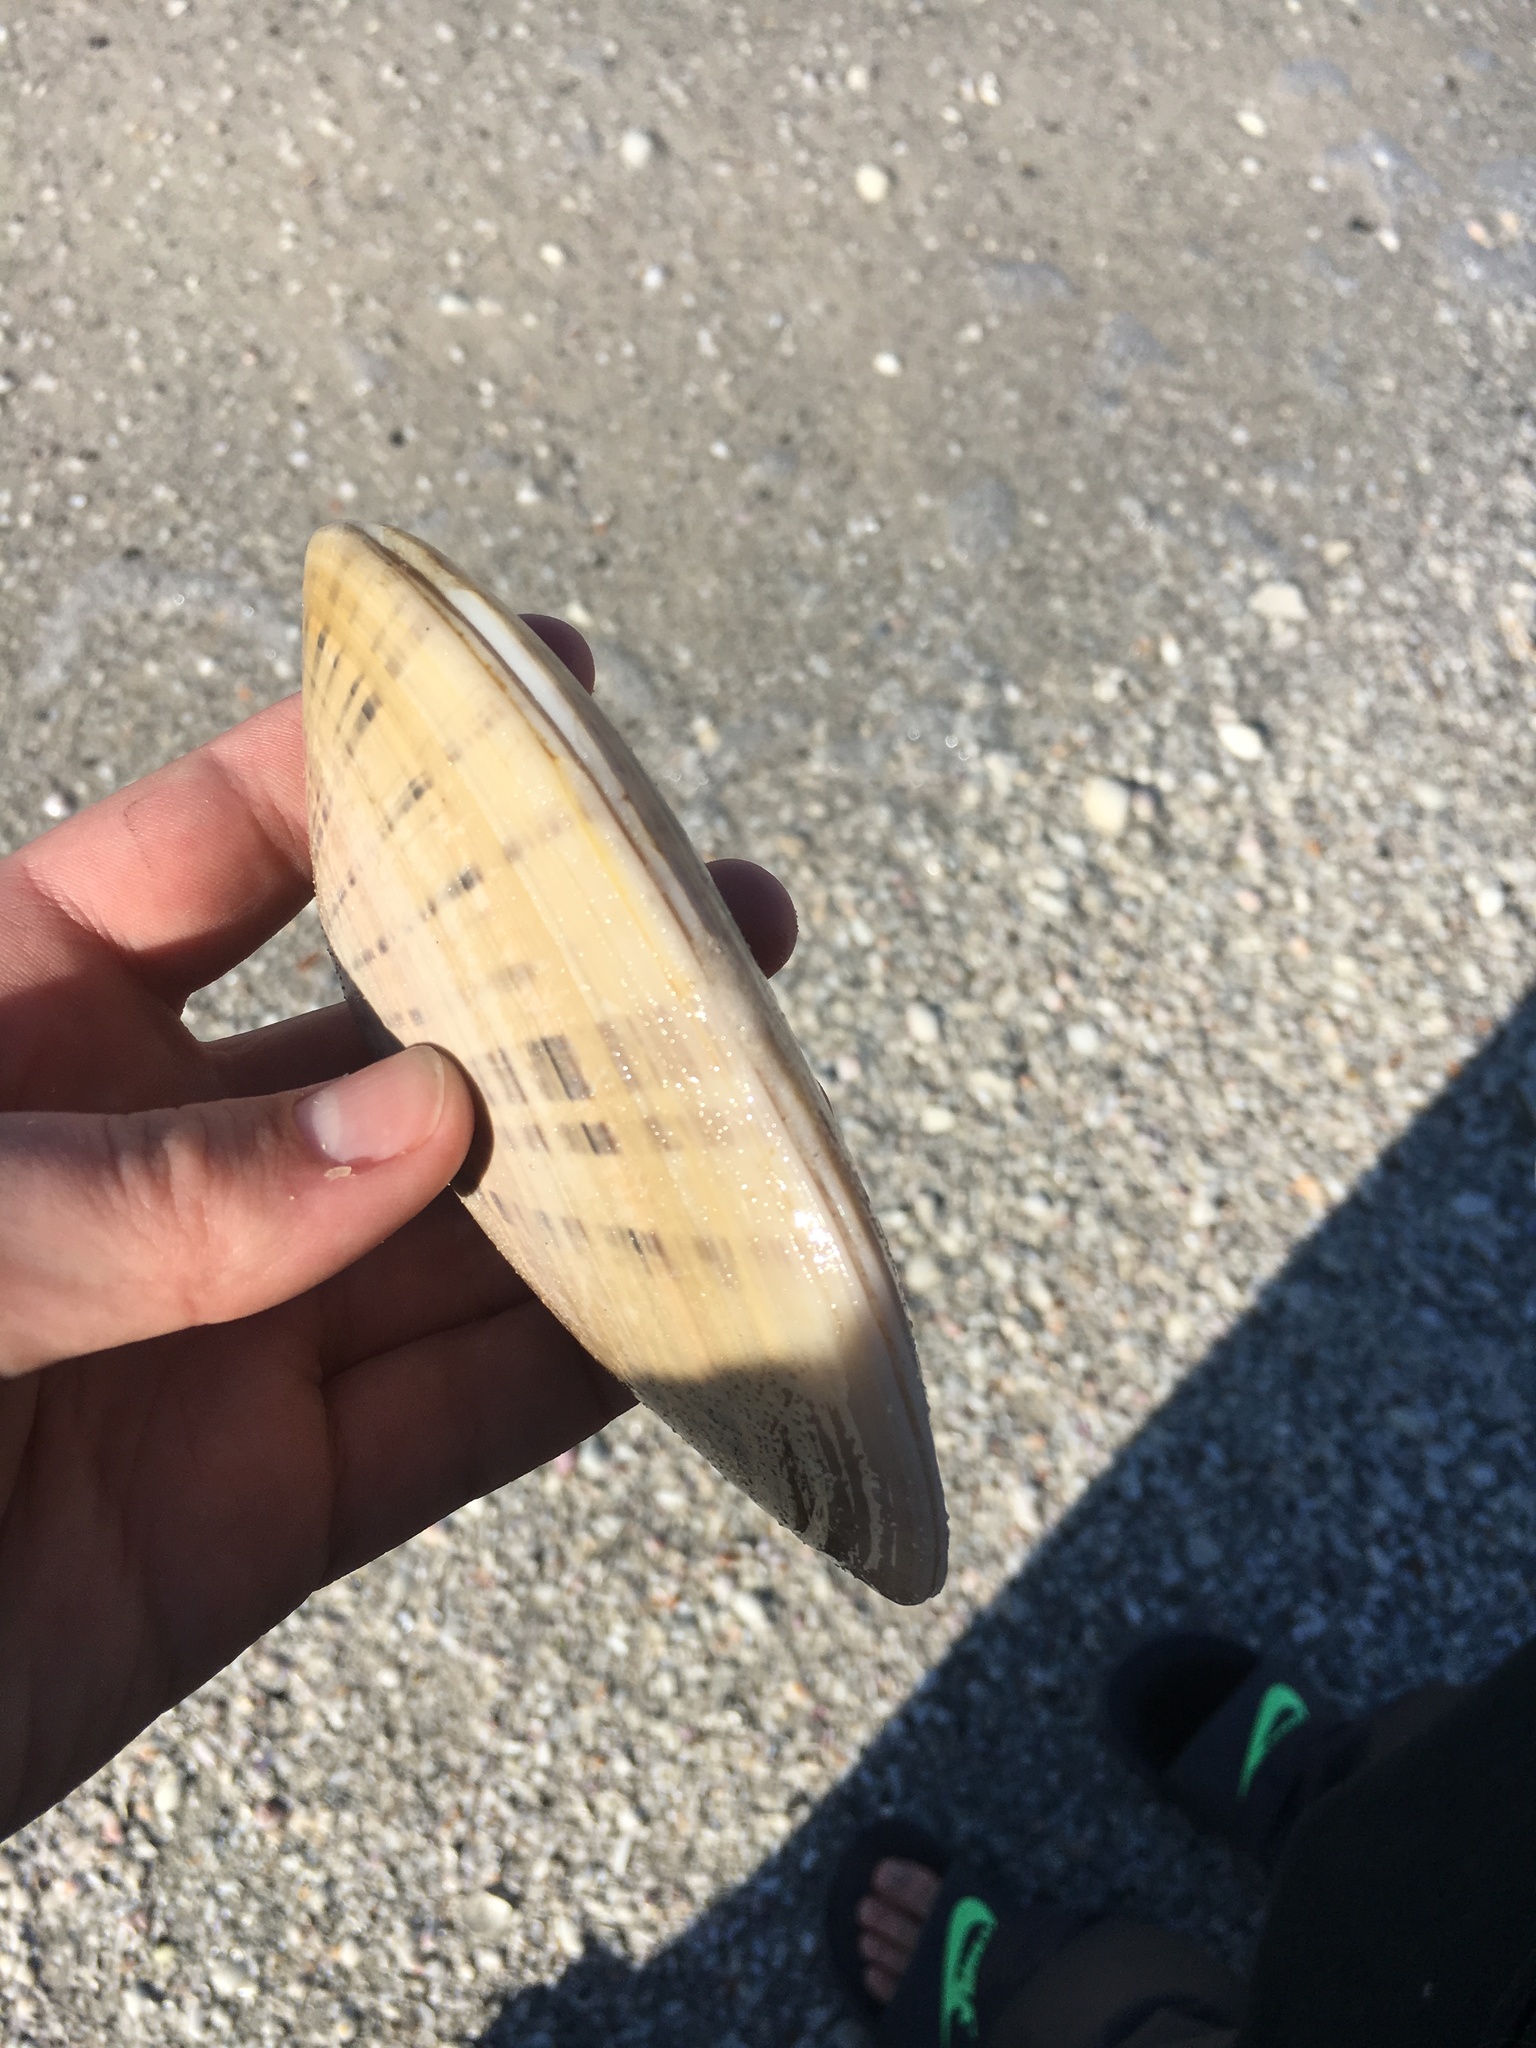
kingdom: Animalia
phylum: Mollusca
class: Bivalvia
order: Venerida
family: Veneridae
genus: Macrocallista
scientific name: Macrocallista nimbosa
